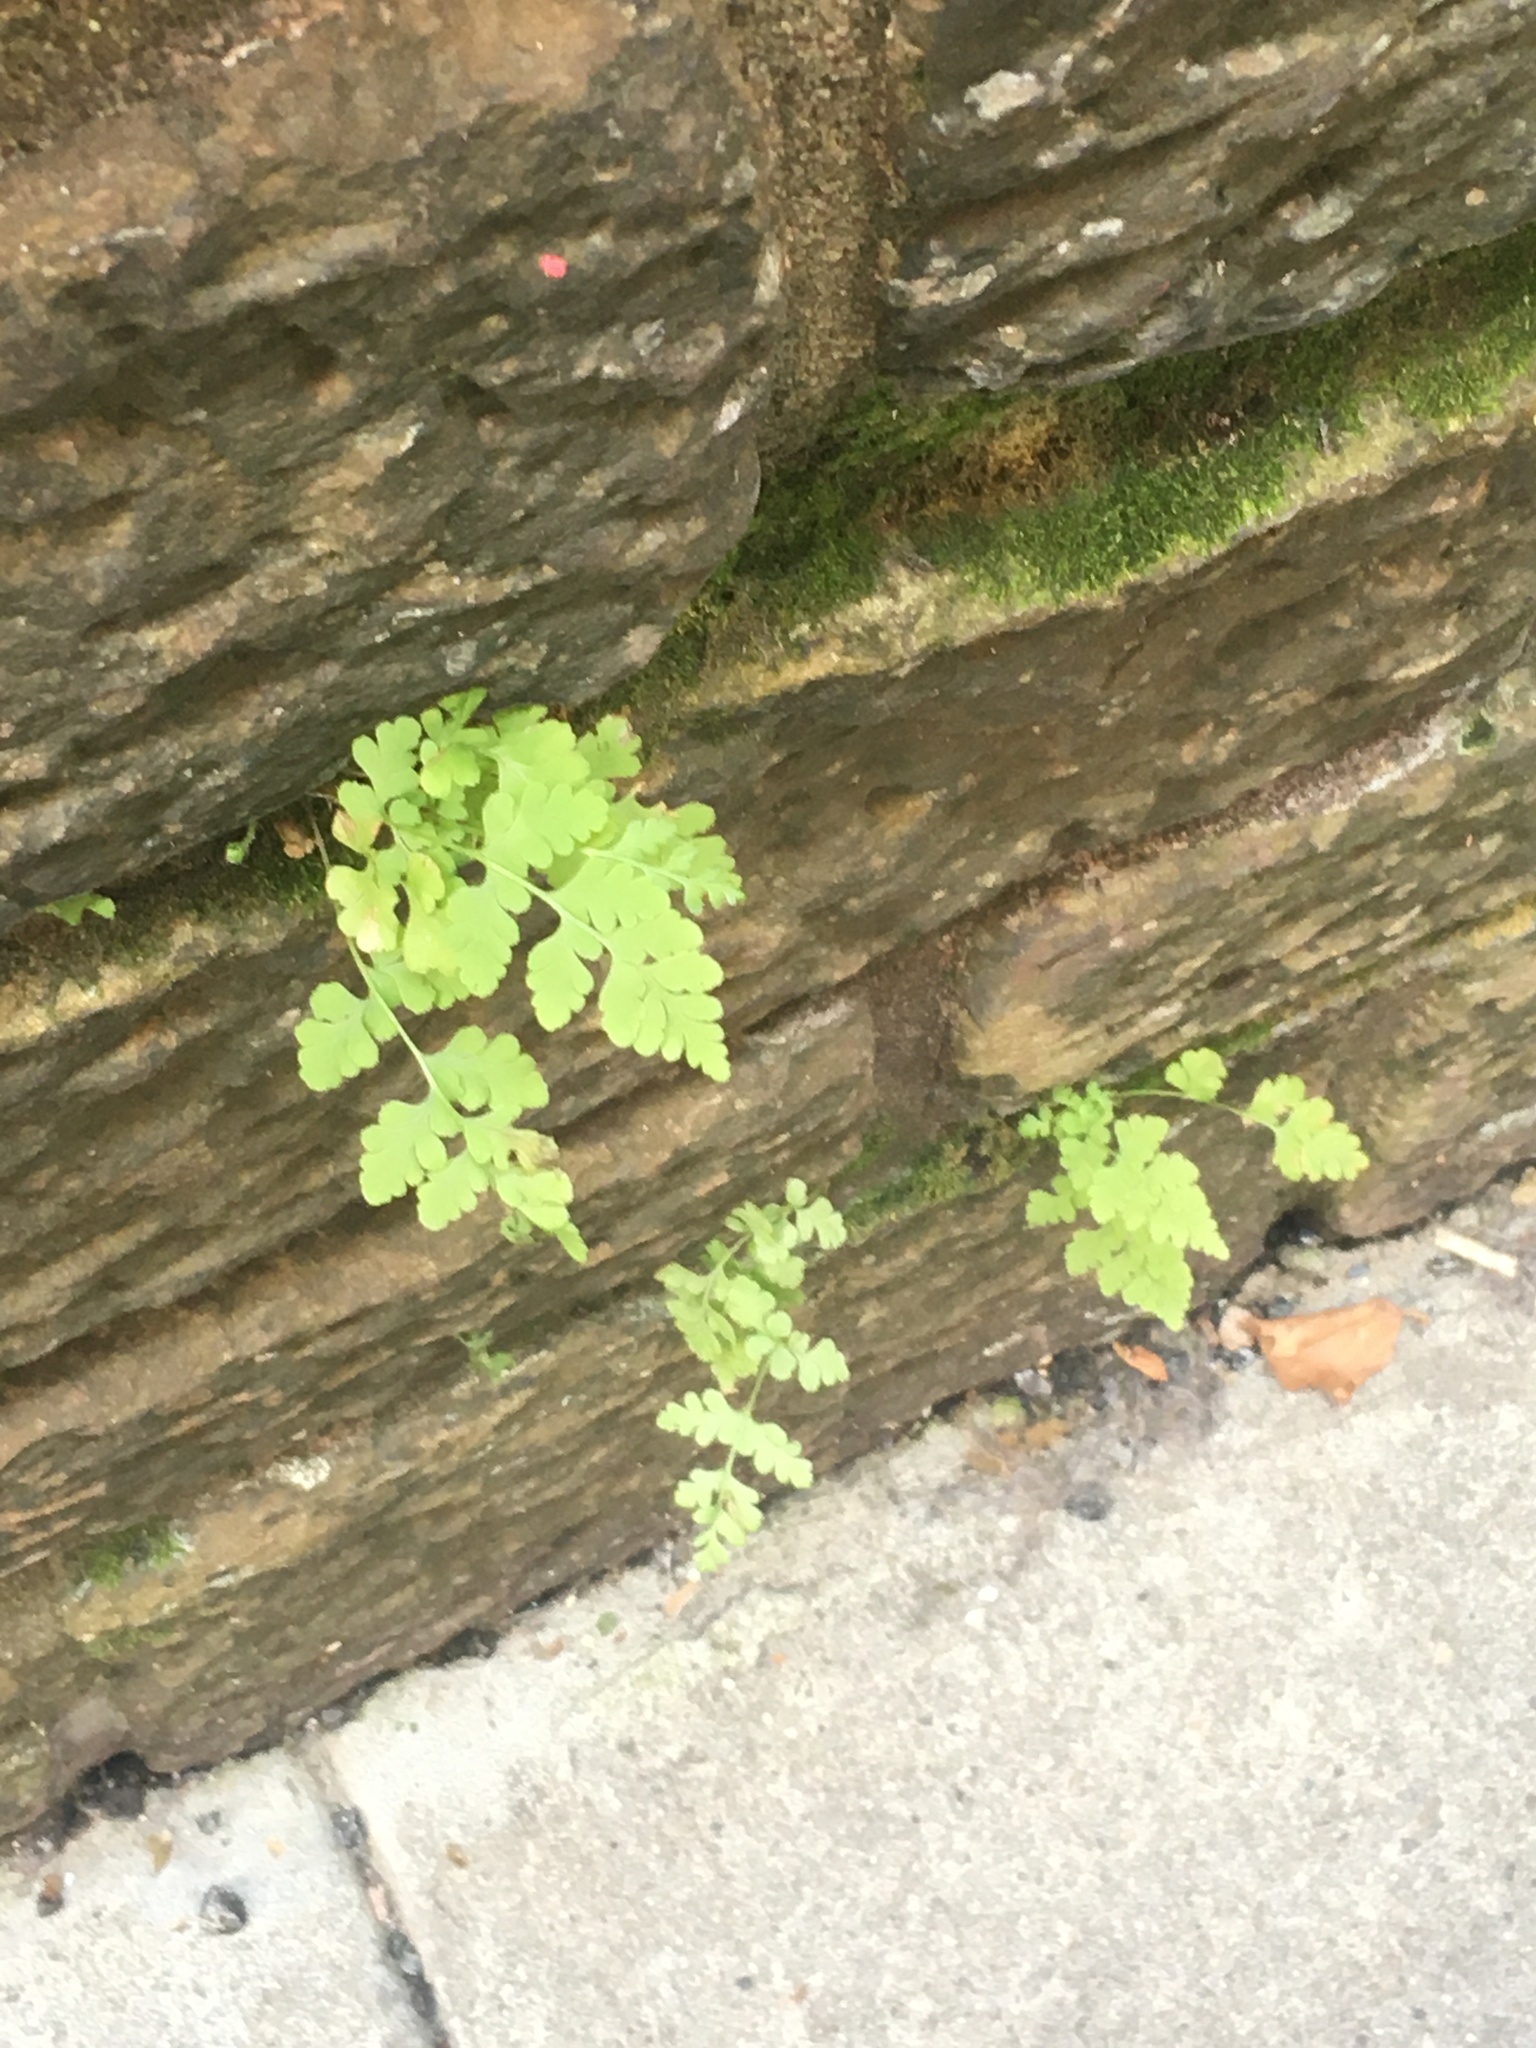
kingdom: Plantae
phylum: Tracheophyta
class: Polypodiopsida
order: Polypodiales
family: Woodsiaceae
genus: Physematium
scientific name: Physematium obtusum
